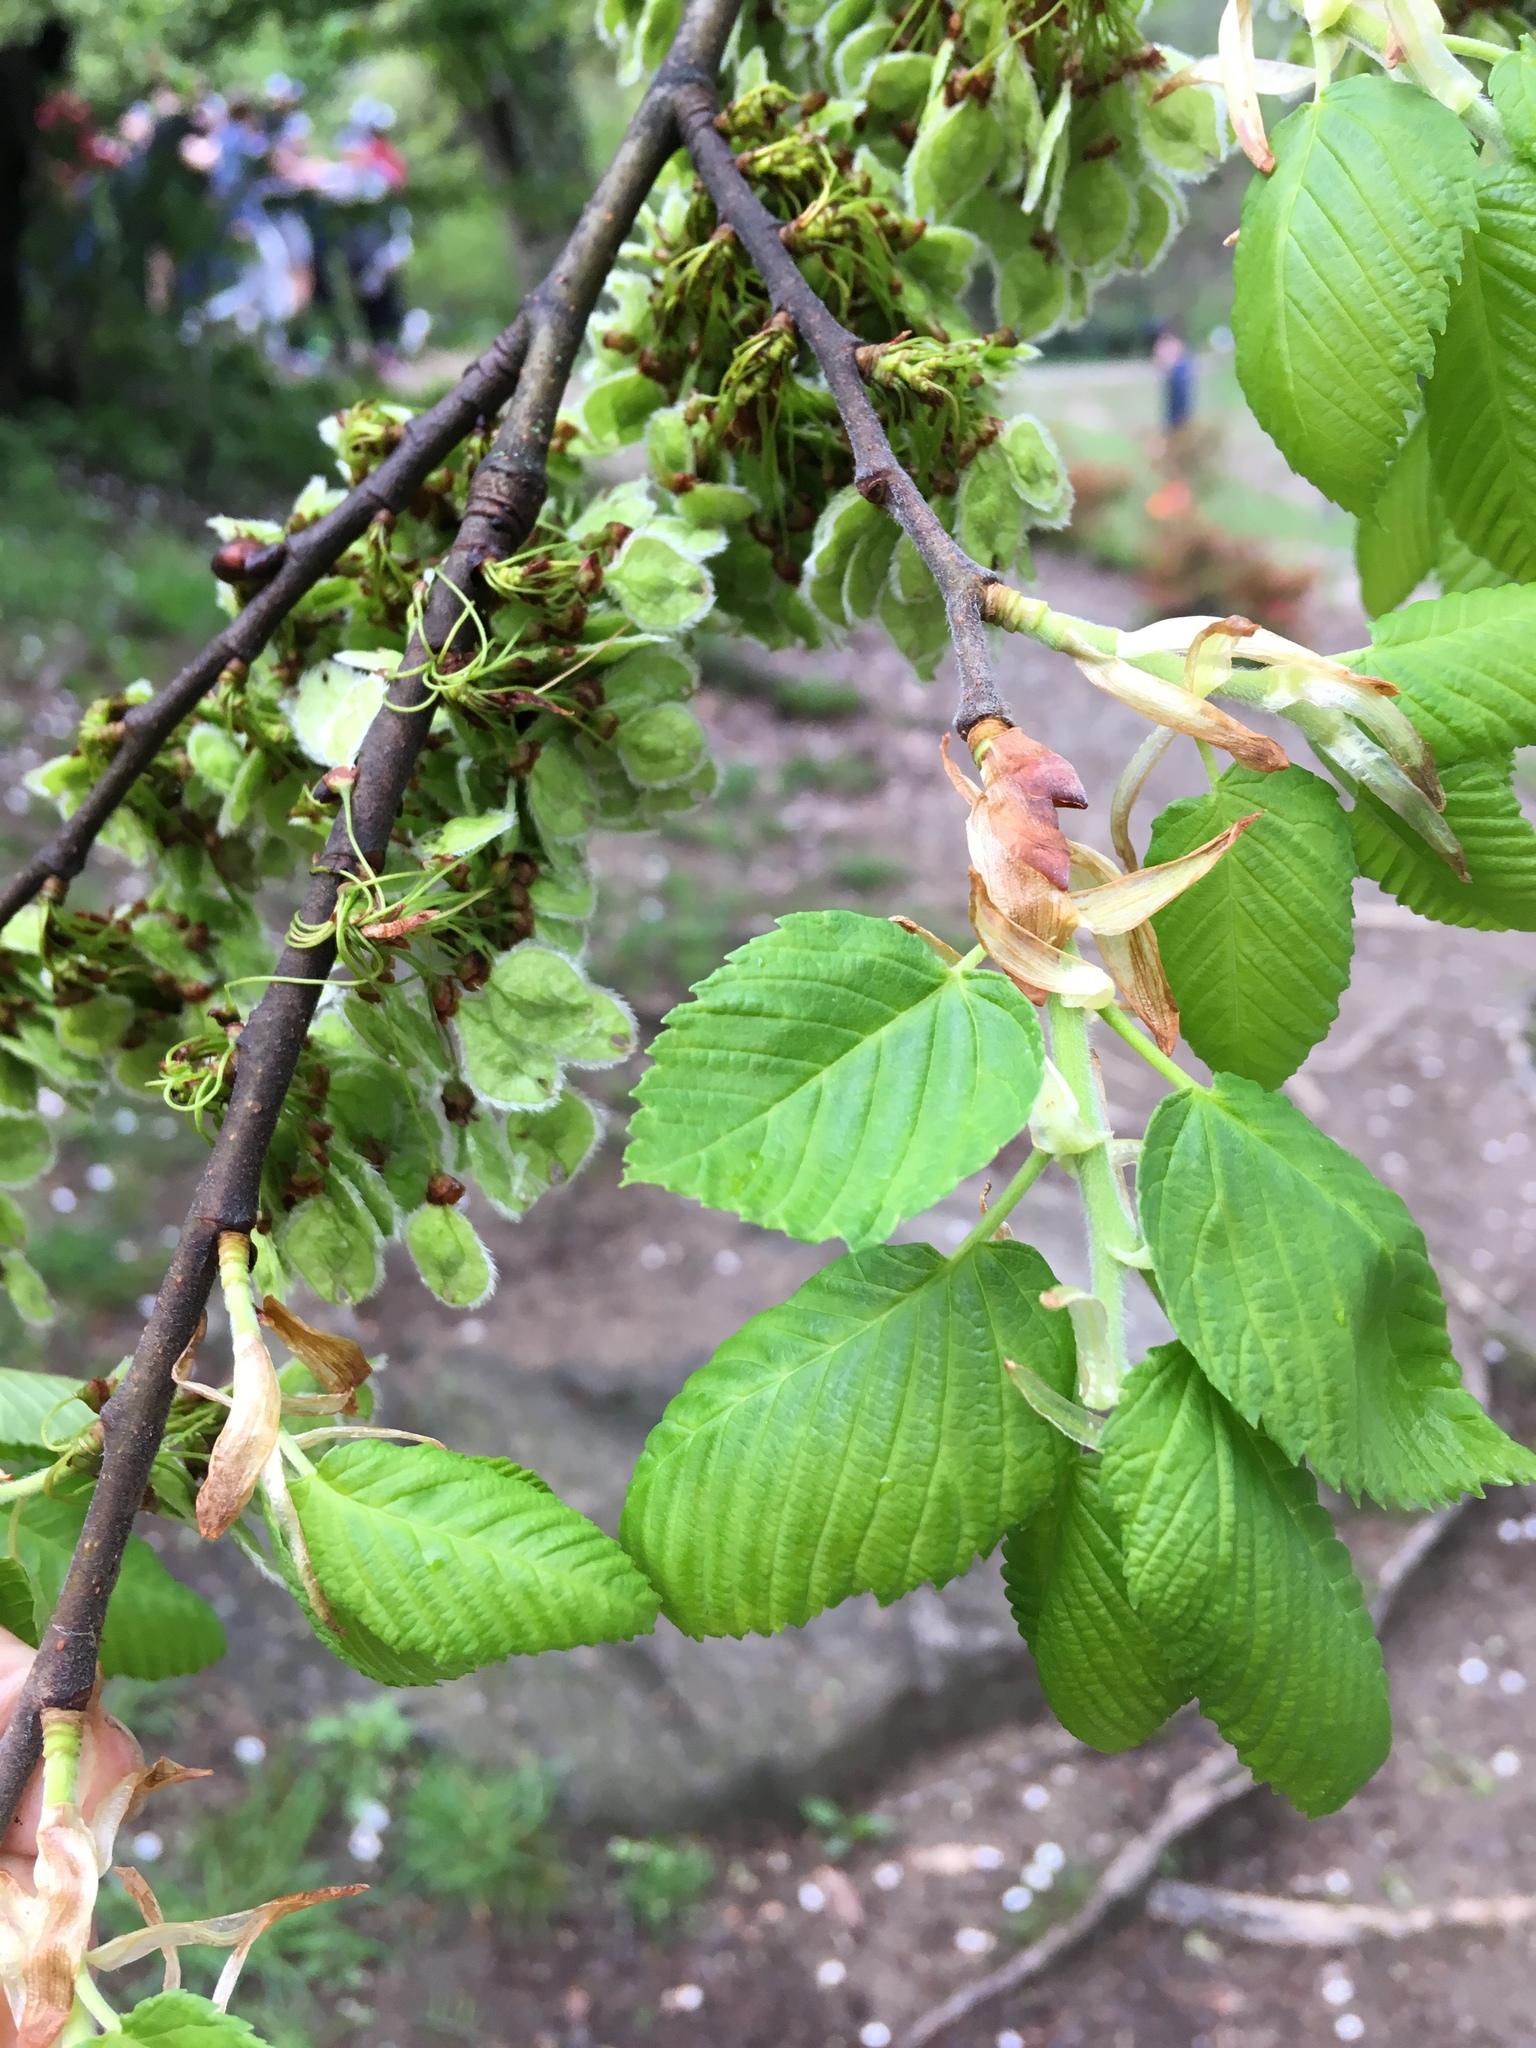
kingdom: Plantae
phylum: Tracheophyta
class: Magnoliopsida
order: Rosales
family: Ulmaceae
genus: Ulmus
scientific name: Ulmus americana
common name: American elm
